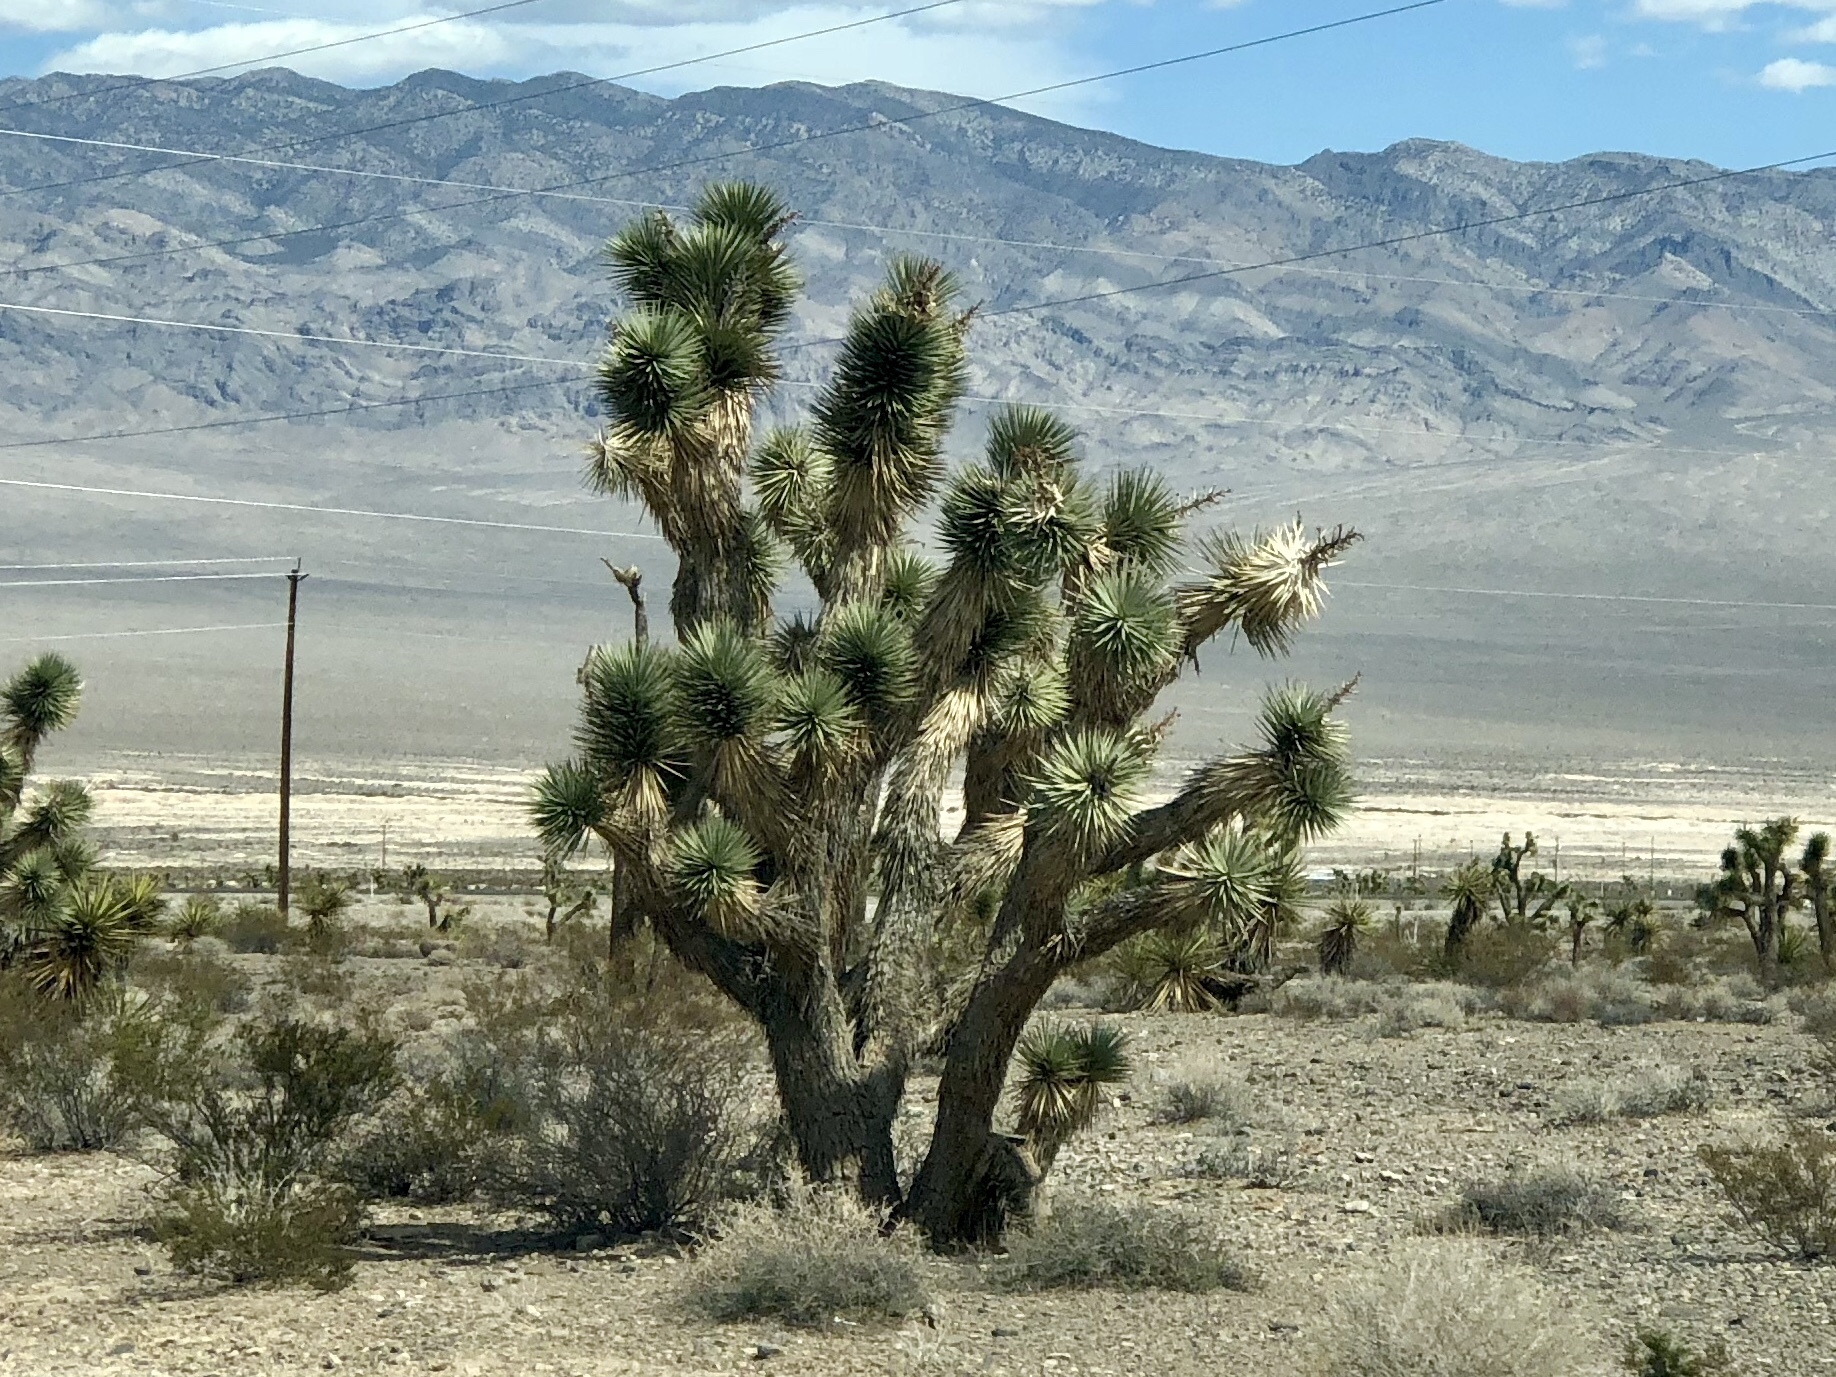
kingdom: Plantae
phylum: Tracheophyta
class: Liliopsida
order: Asparagales
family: Asparagaceae
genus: Yucca
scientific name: Yucca brevifolia
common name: Joshua tree
